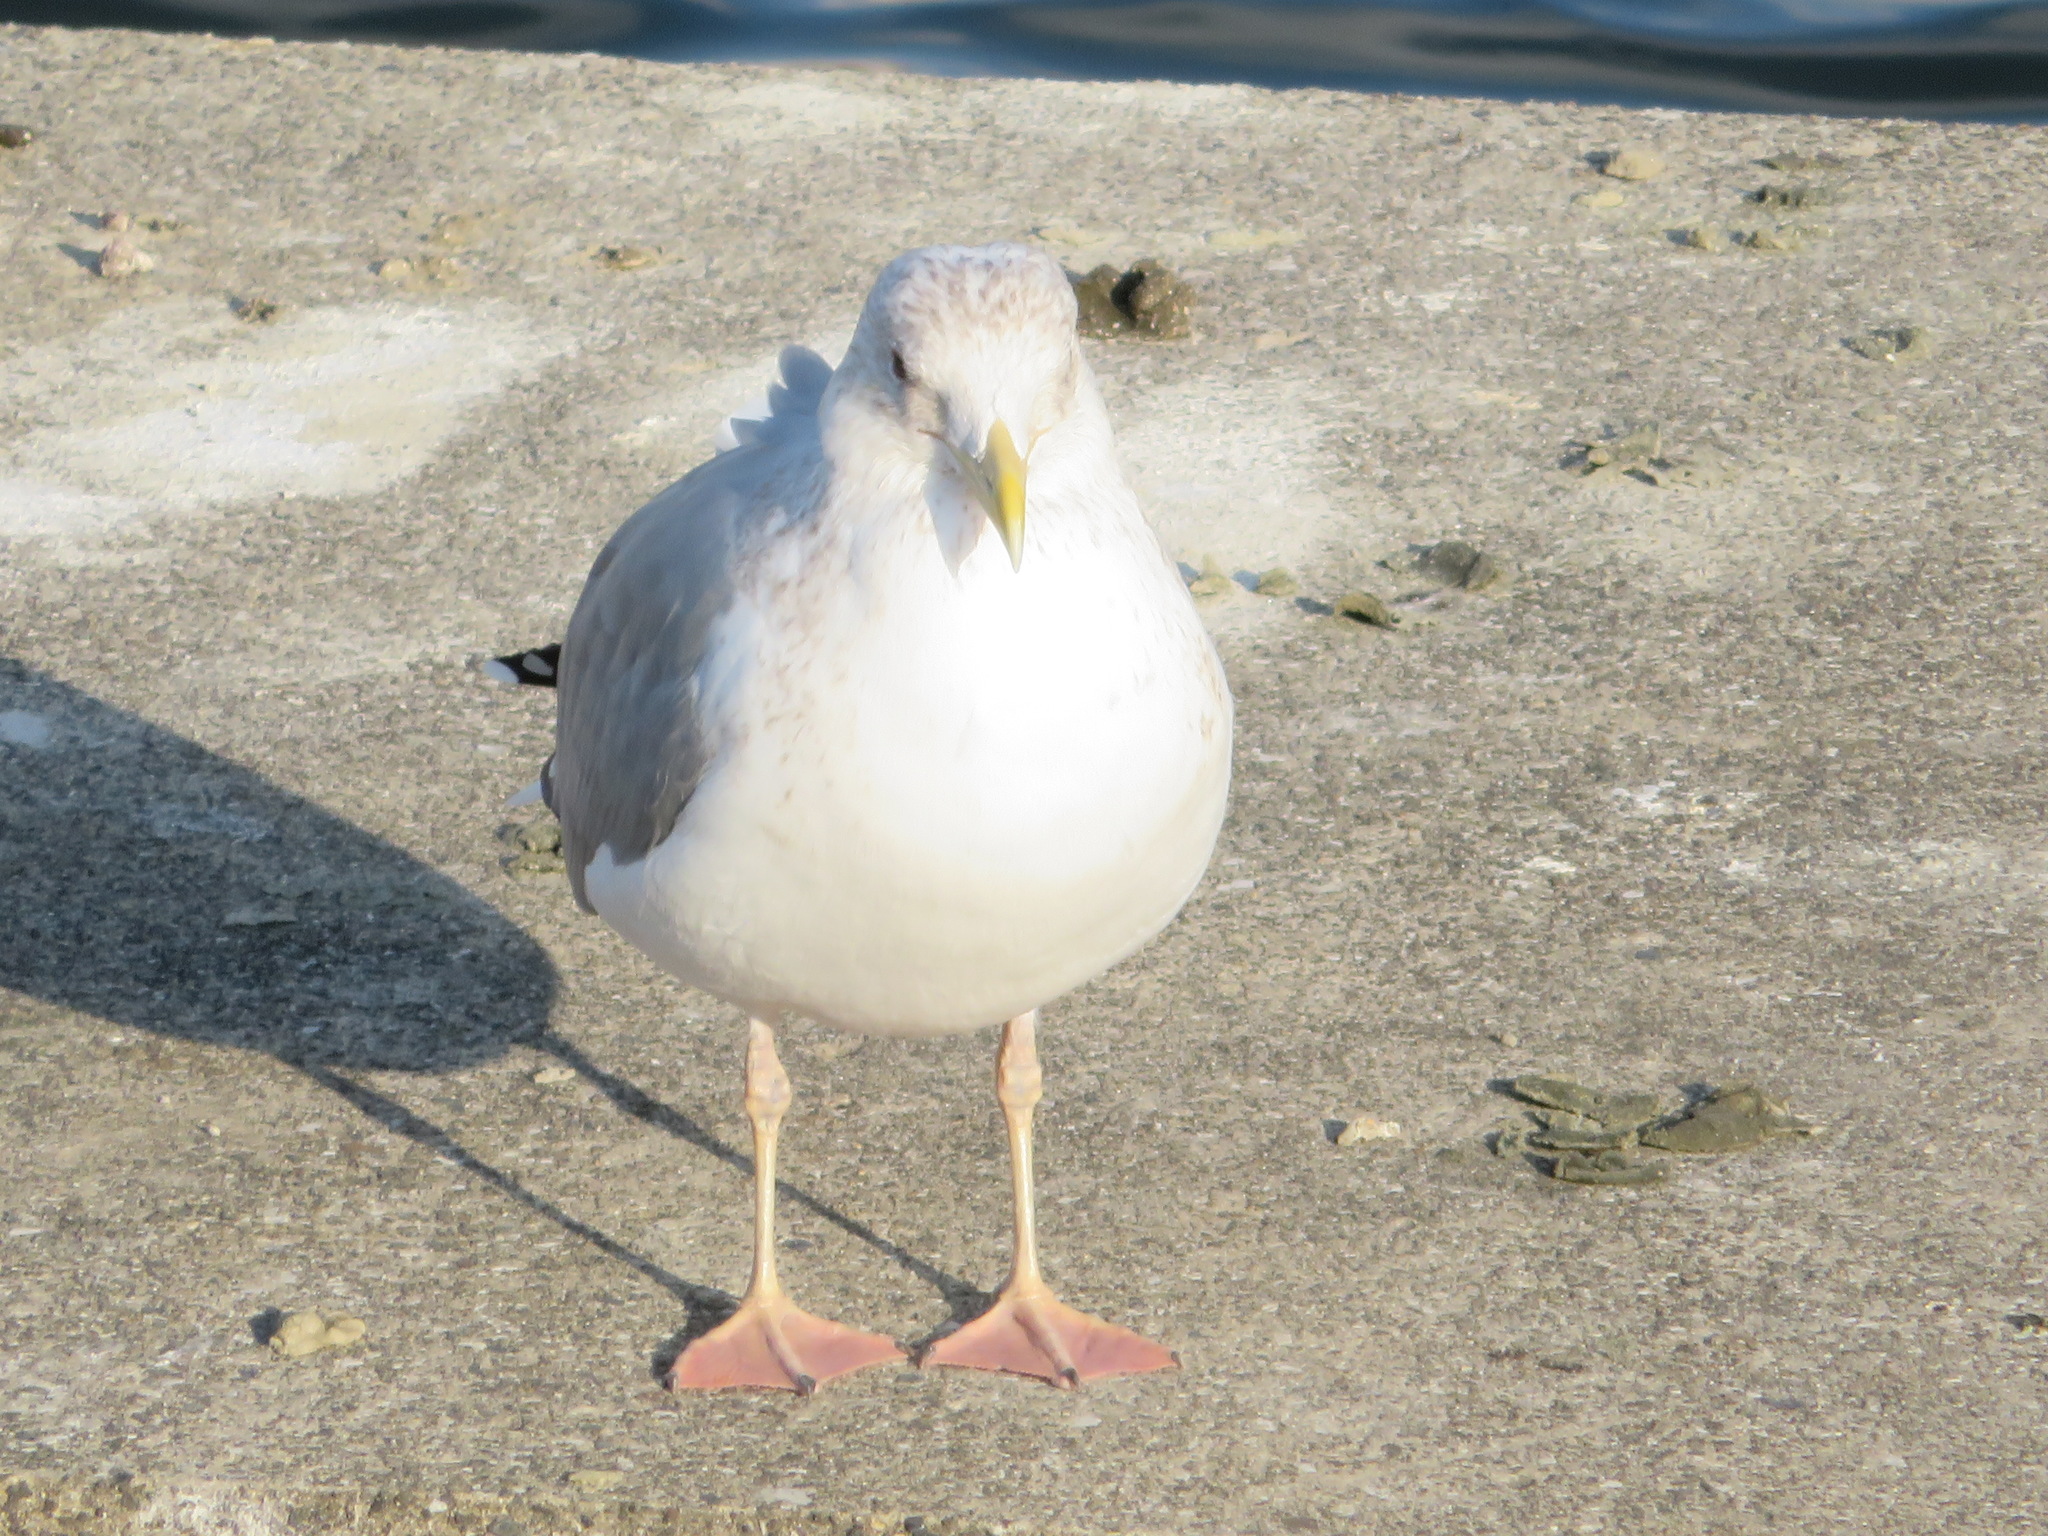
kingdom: Animalia
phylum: Chordata
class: Aves
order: Charadriiformes
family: Laridae
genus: Larus
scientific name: Larus vegae
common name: Vega gull
